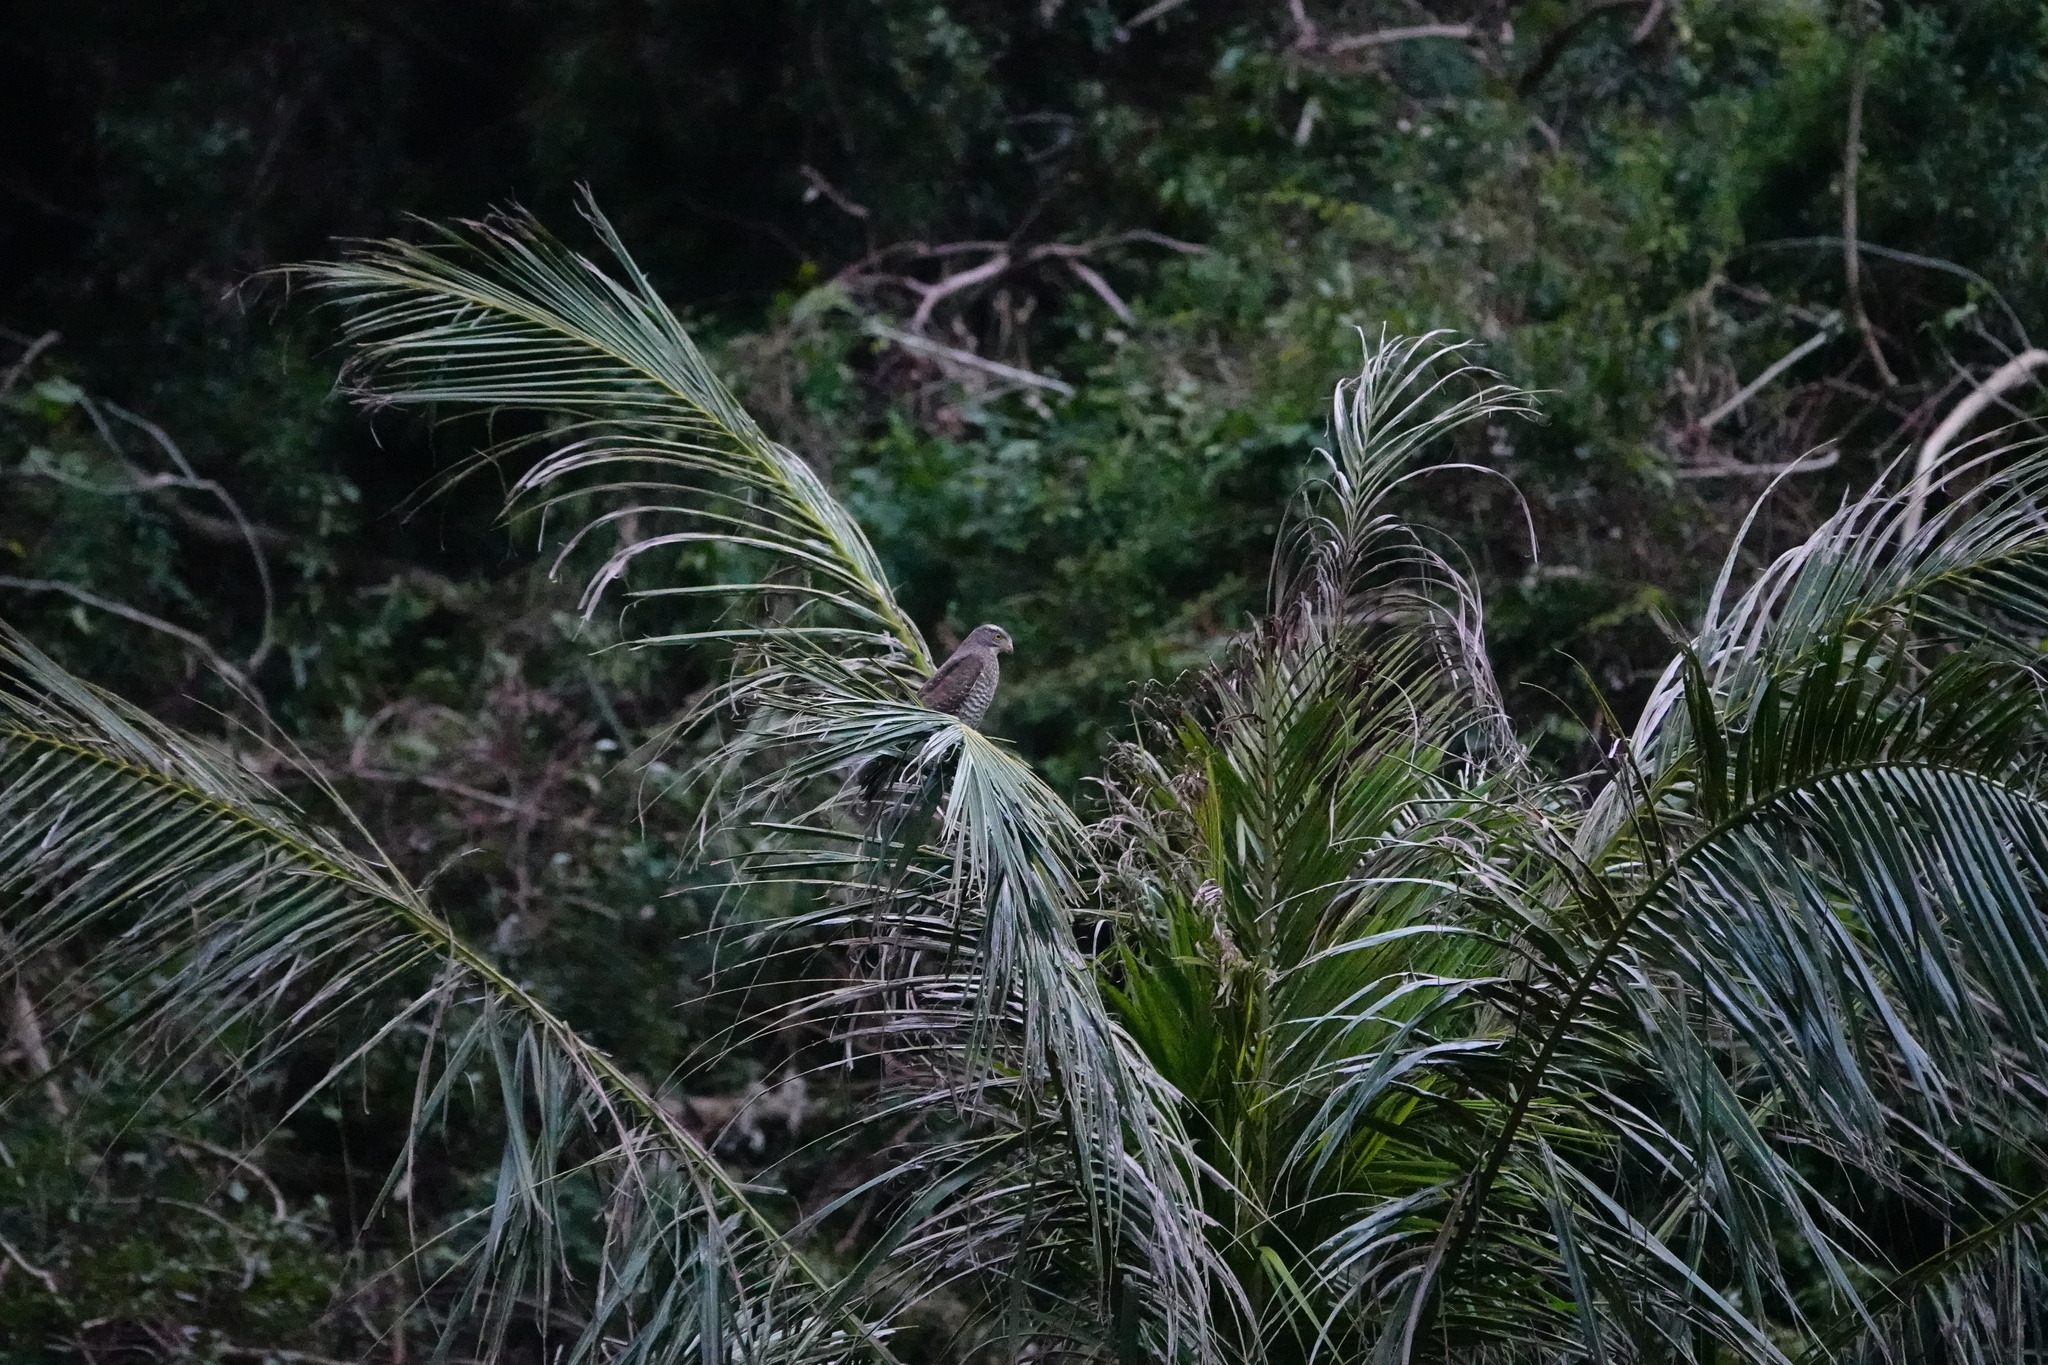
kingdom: Animalia
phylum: Chordata
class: Aves
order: Accipitriformes
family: Accipitridae
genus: Butastur
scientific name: Butastur indicus
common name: Grey-faced buzzard
